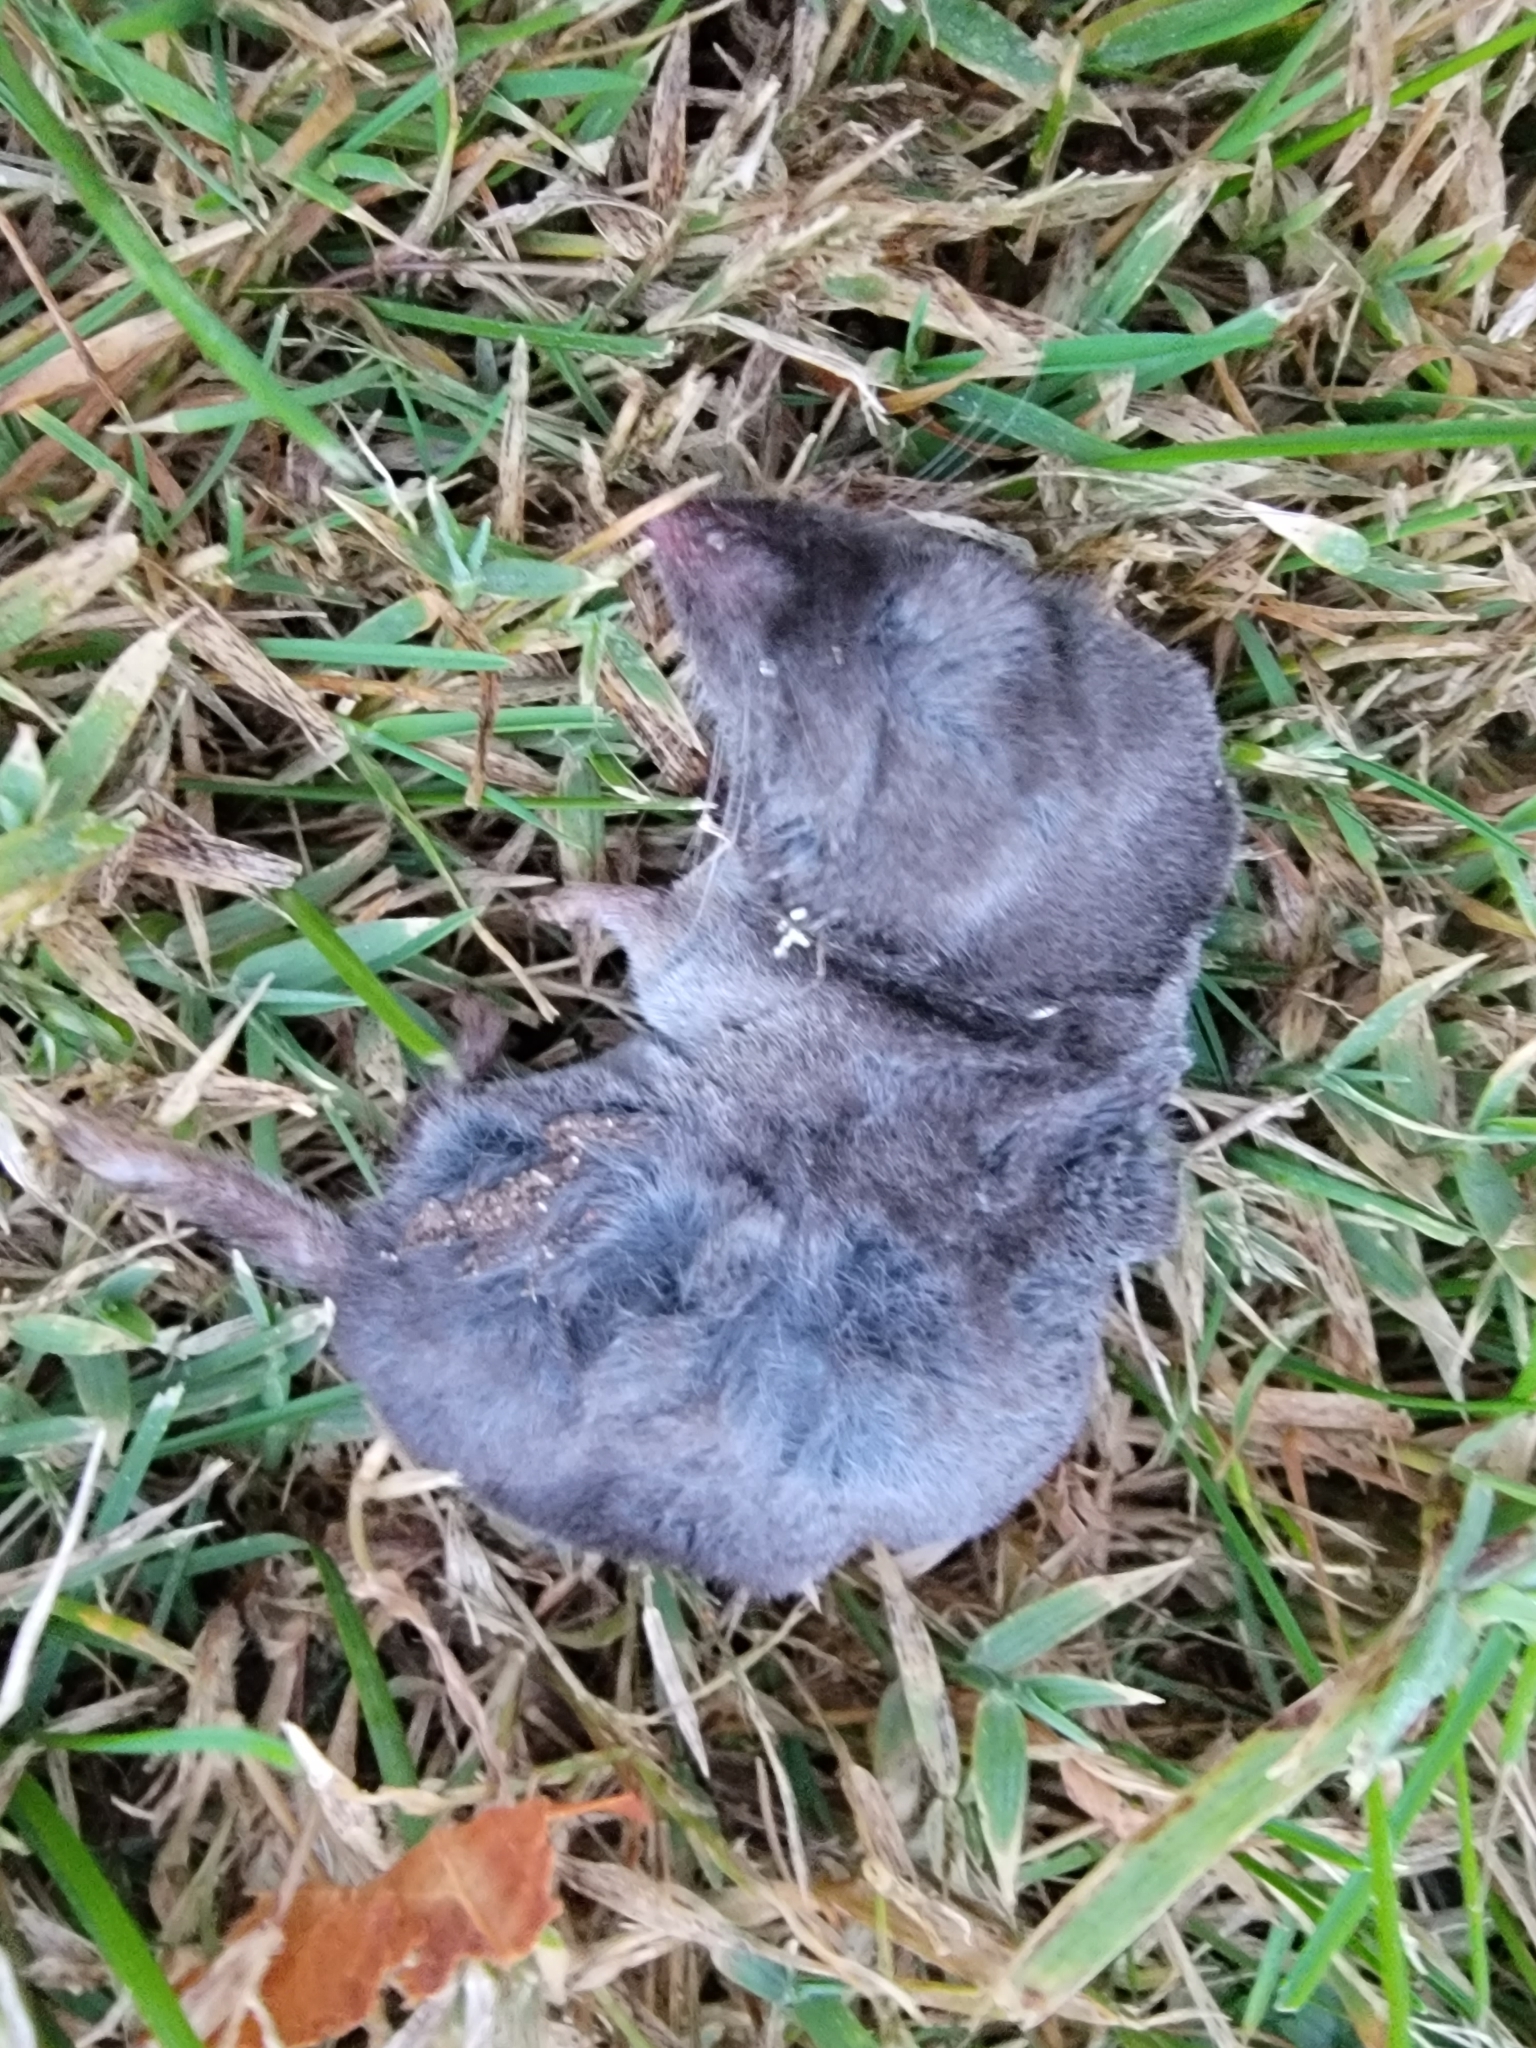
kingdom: Animalia
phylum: Chordata
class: Mammalia
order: Soricomorpha
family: Soricidae
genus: Blarina
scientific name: Blarina brevicauda
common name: Northern short-tailed shrew
